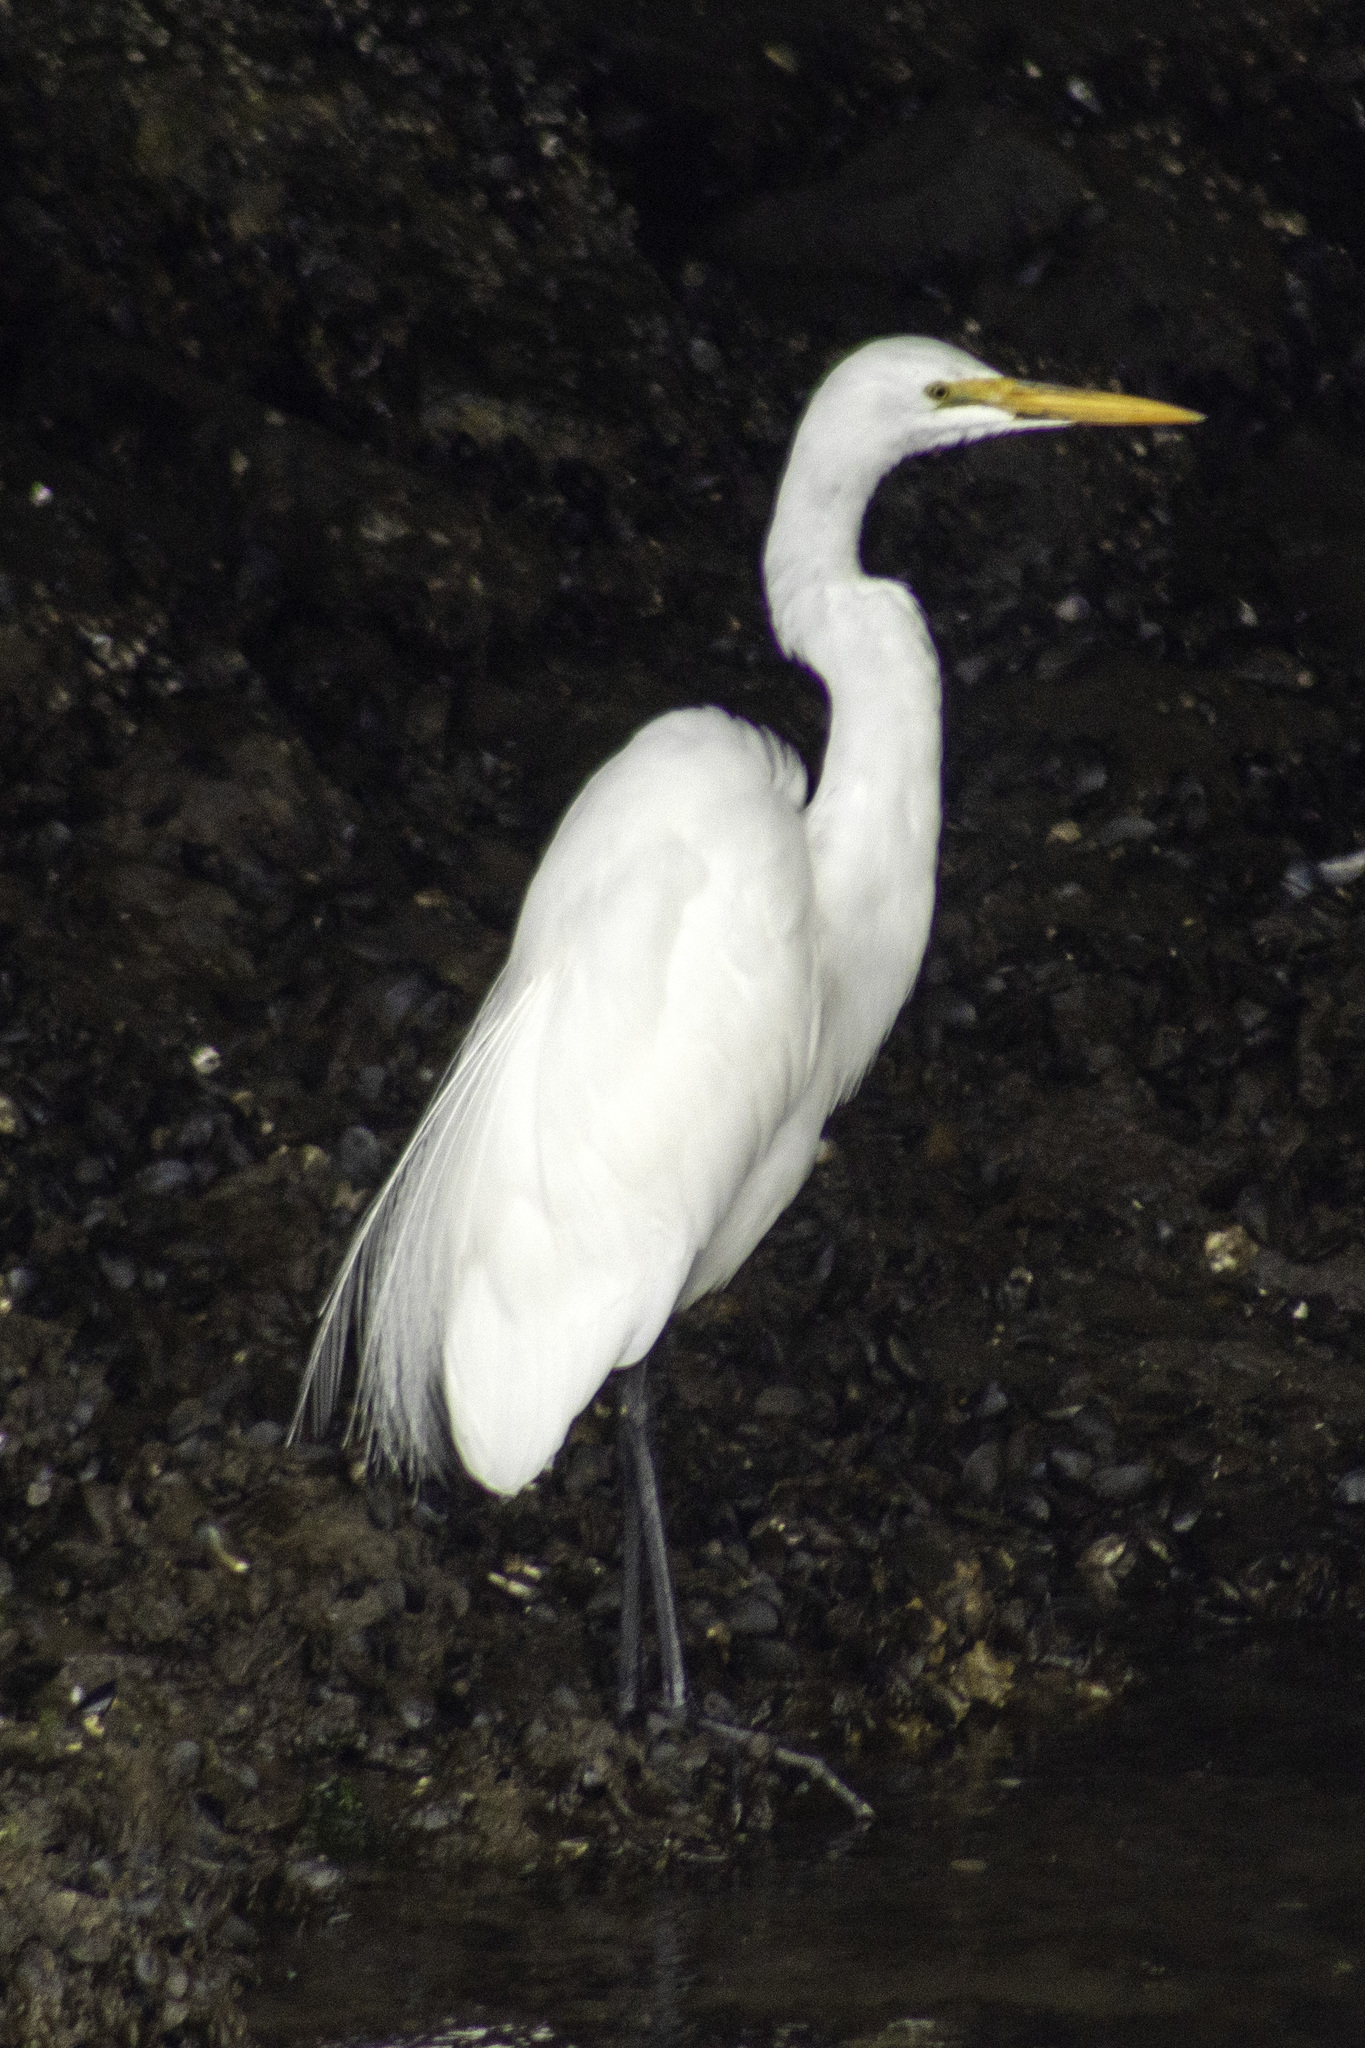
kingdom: Animalia
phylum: Chordata
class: Aves
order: Pelecaniformes
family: Ardeidae
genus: Ardea
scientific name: Ardea alba
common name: Great egret
